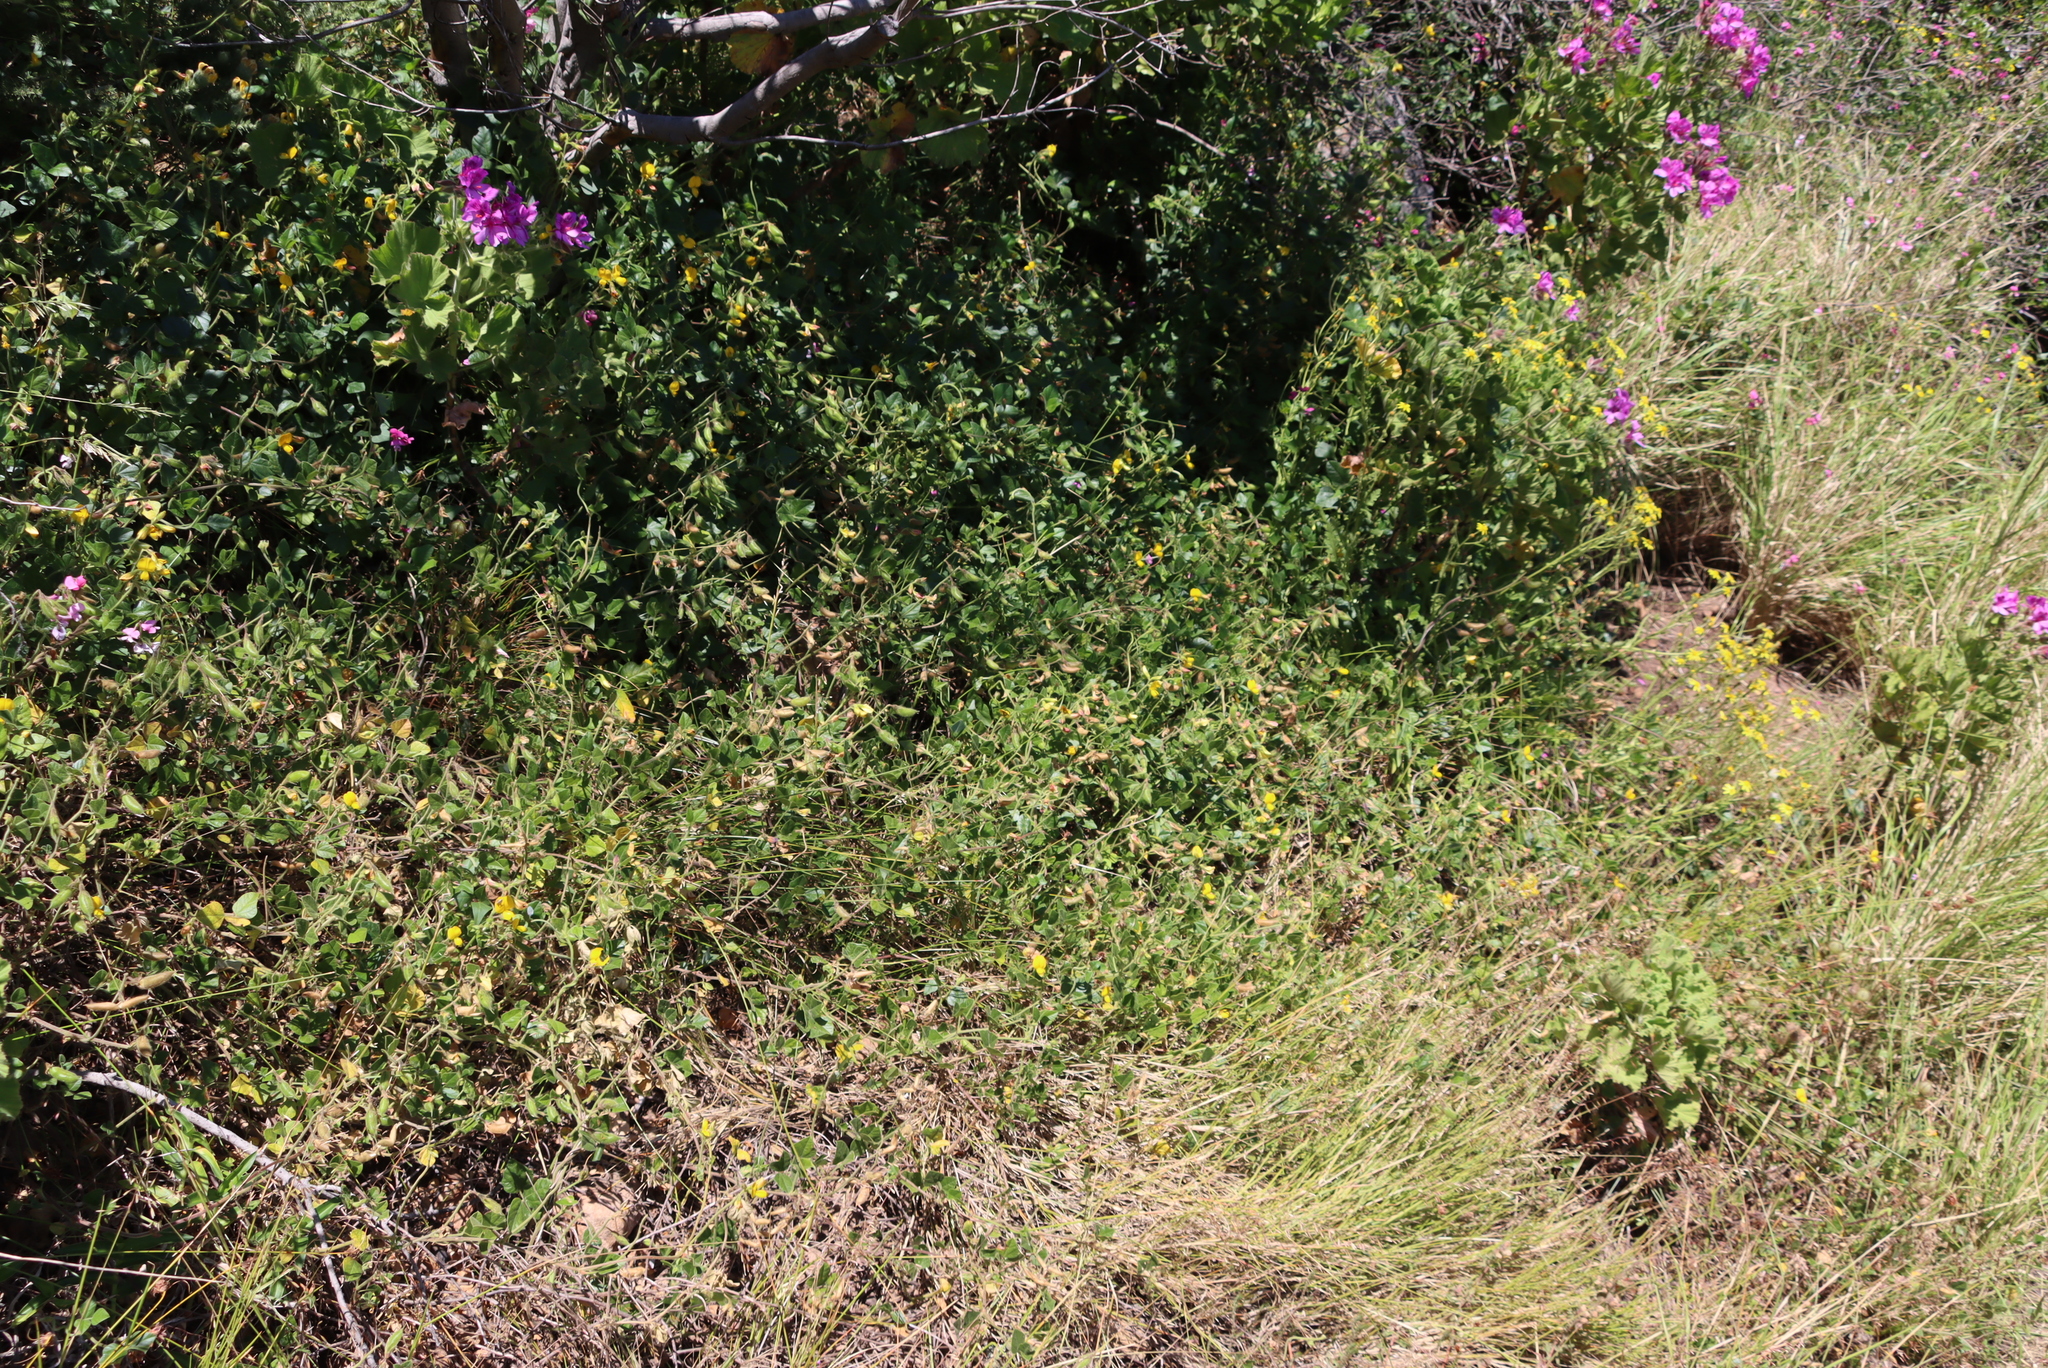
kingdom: Plantae
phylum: Tracheophyta
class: Magnoliopsida
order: Fabales
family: Fabaceae
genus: Bolusafra
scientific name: Bolusafra bituminosa
